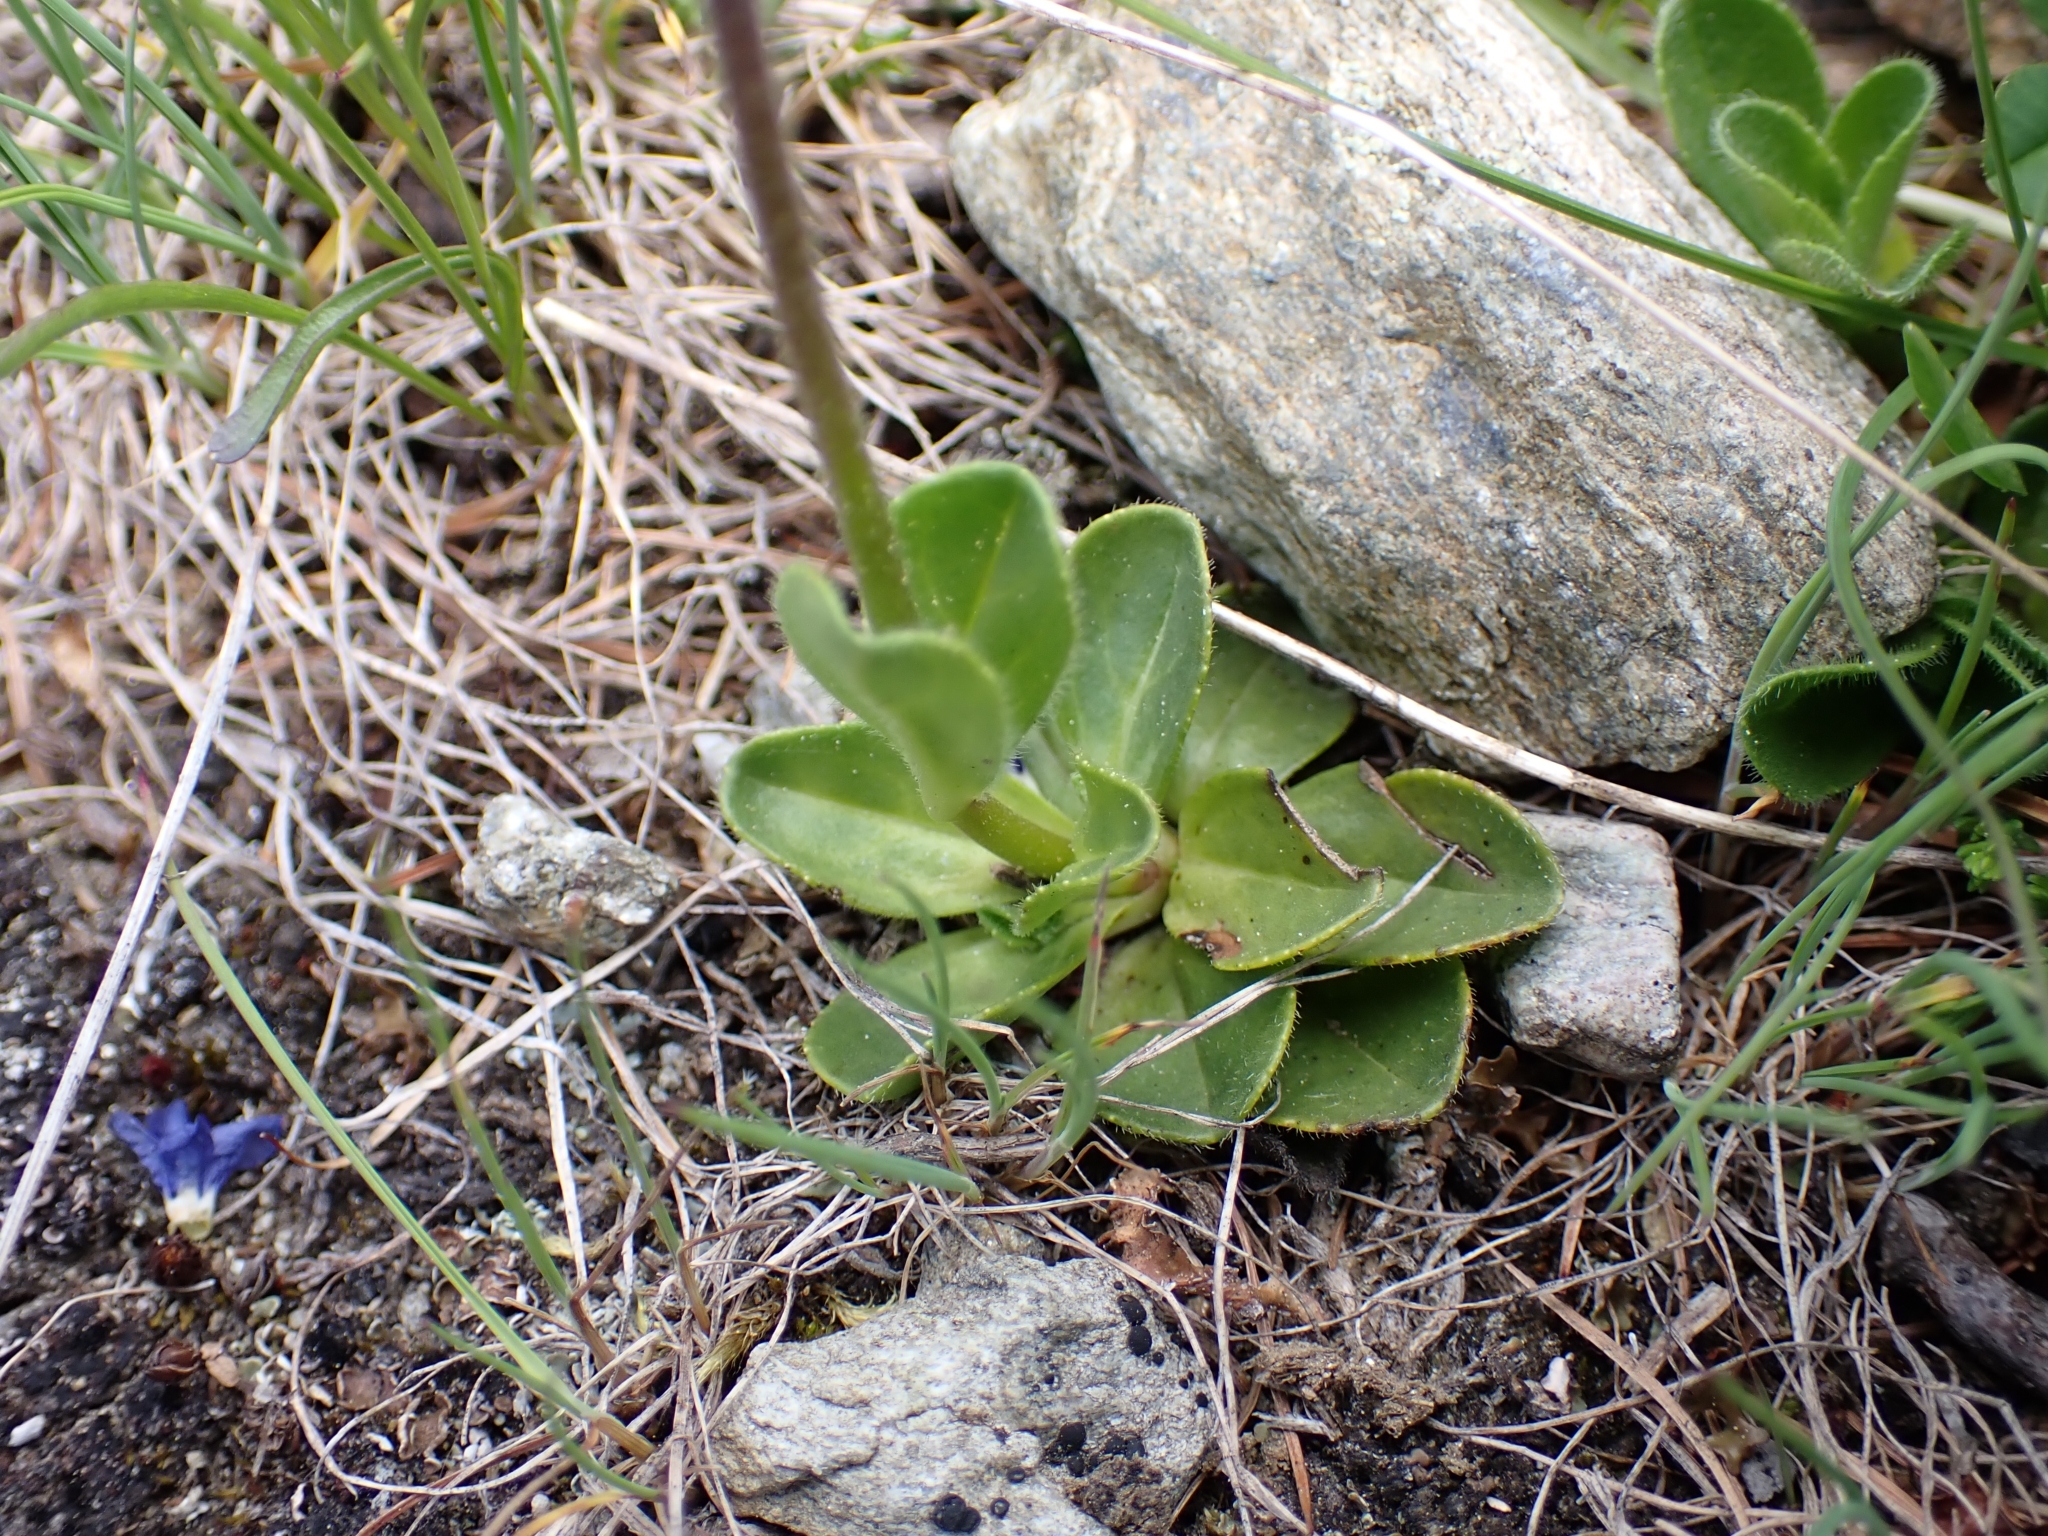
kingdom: Plantae
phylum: Tracheophyta
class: Magnoliopsida
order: Lamiales
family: Plantaginaceae
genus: Veronica
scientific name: Veronica bellidioides
